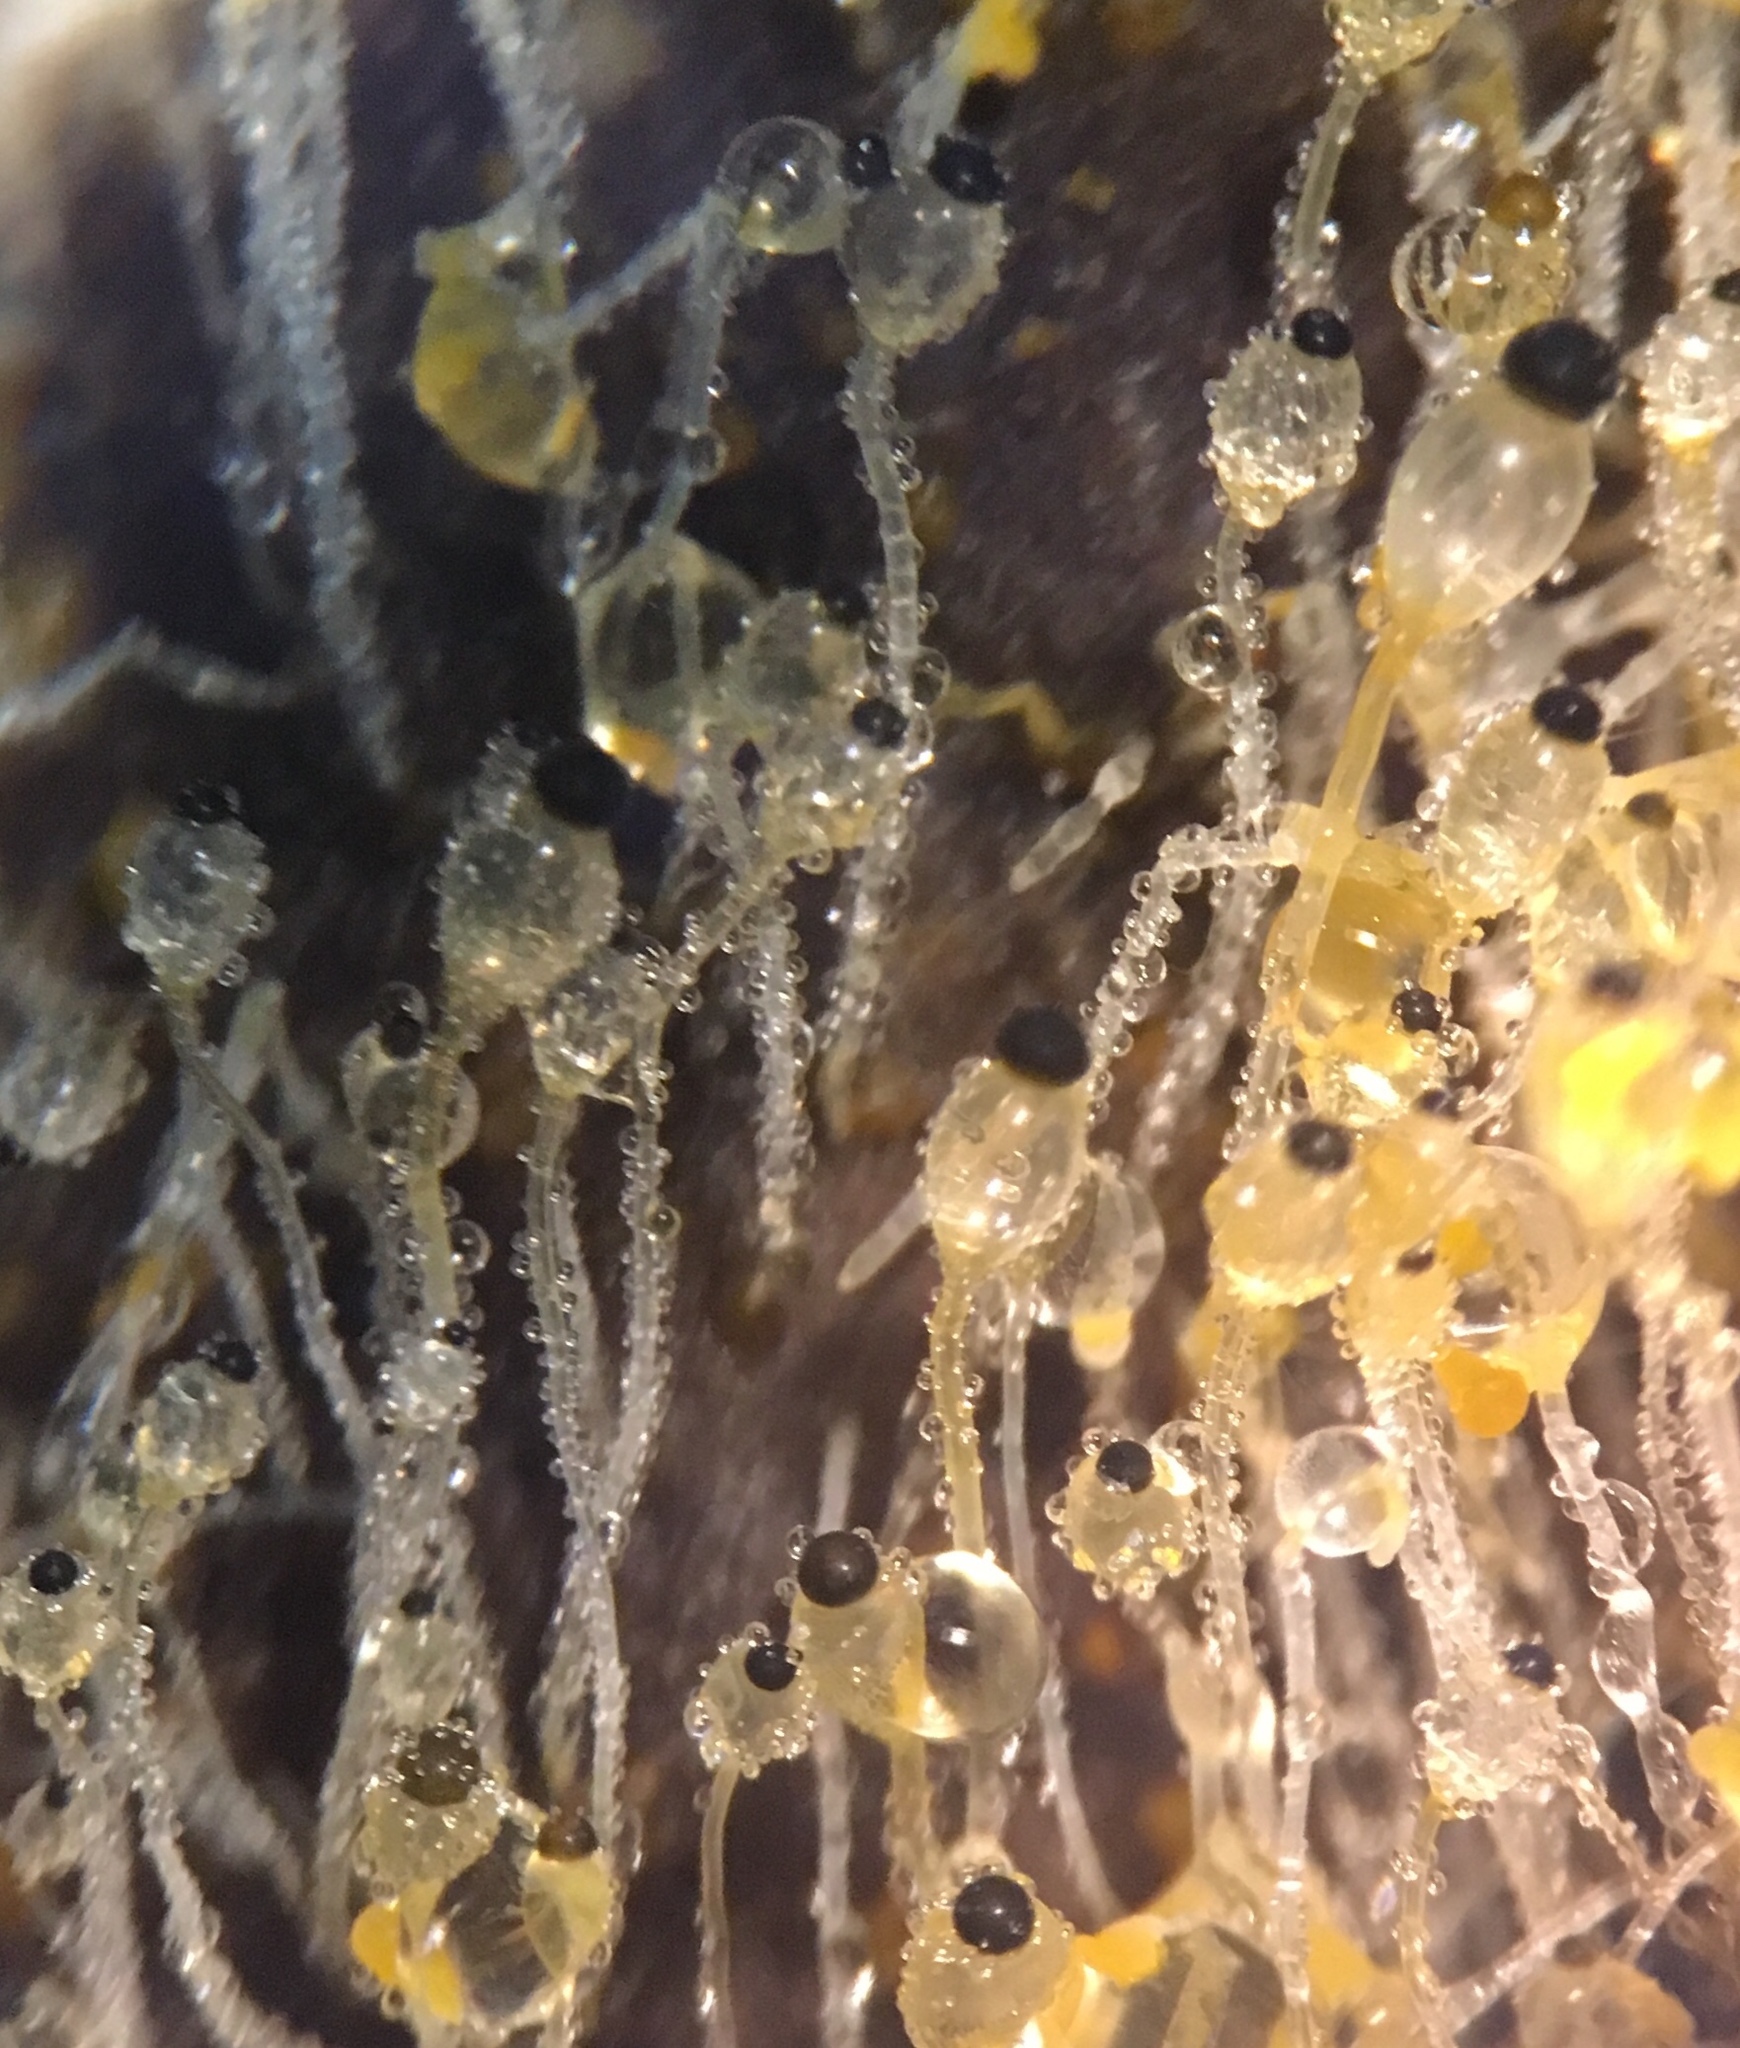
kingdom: Fungi
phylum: Mucoromycota
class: Mucoromycetes
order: Mucorales
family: Pilobolaceae
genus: Pilobolus
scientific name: Pilobolus crystallinus
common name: Dung cannon
